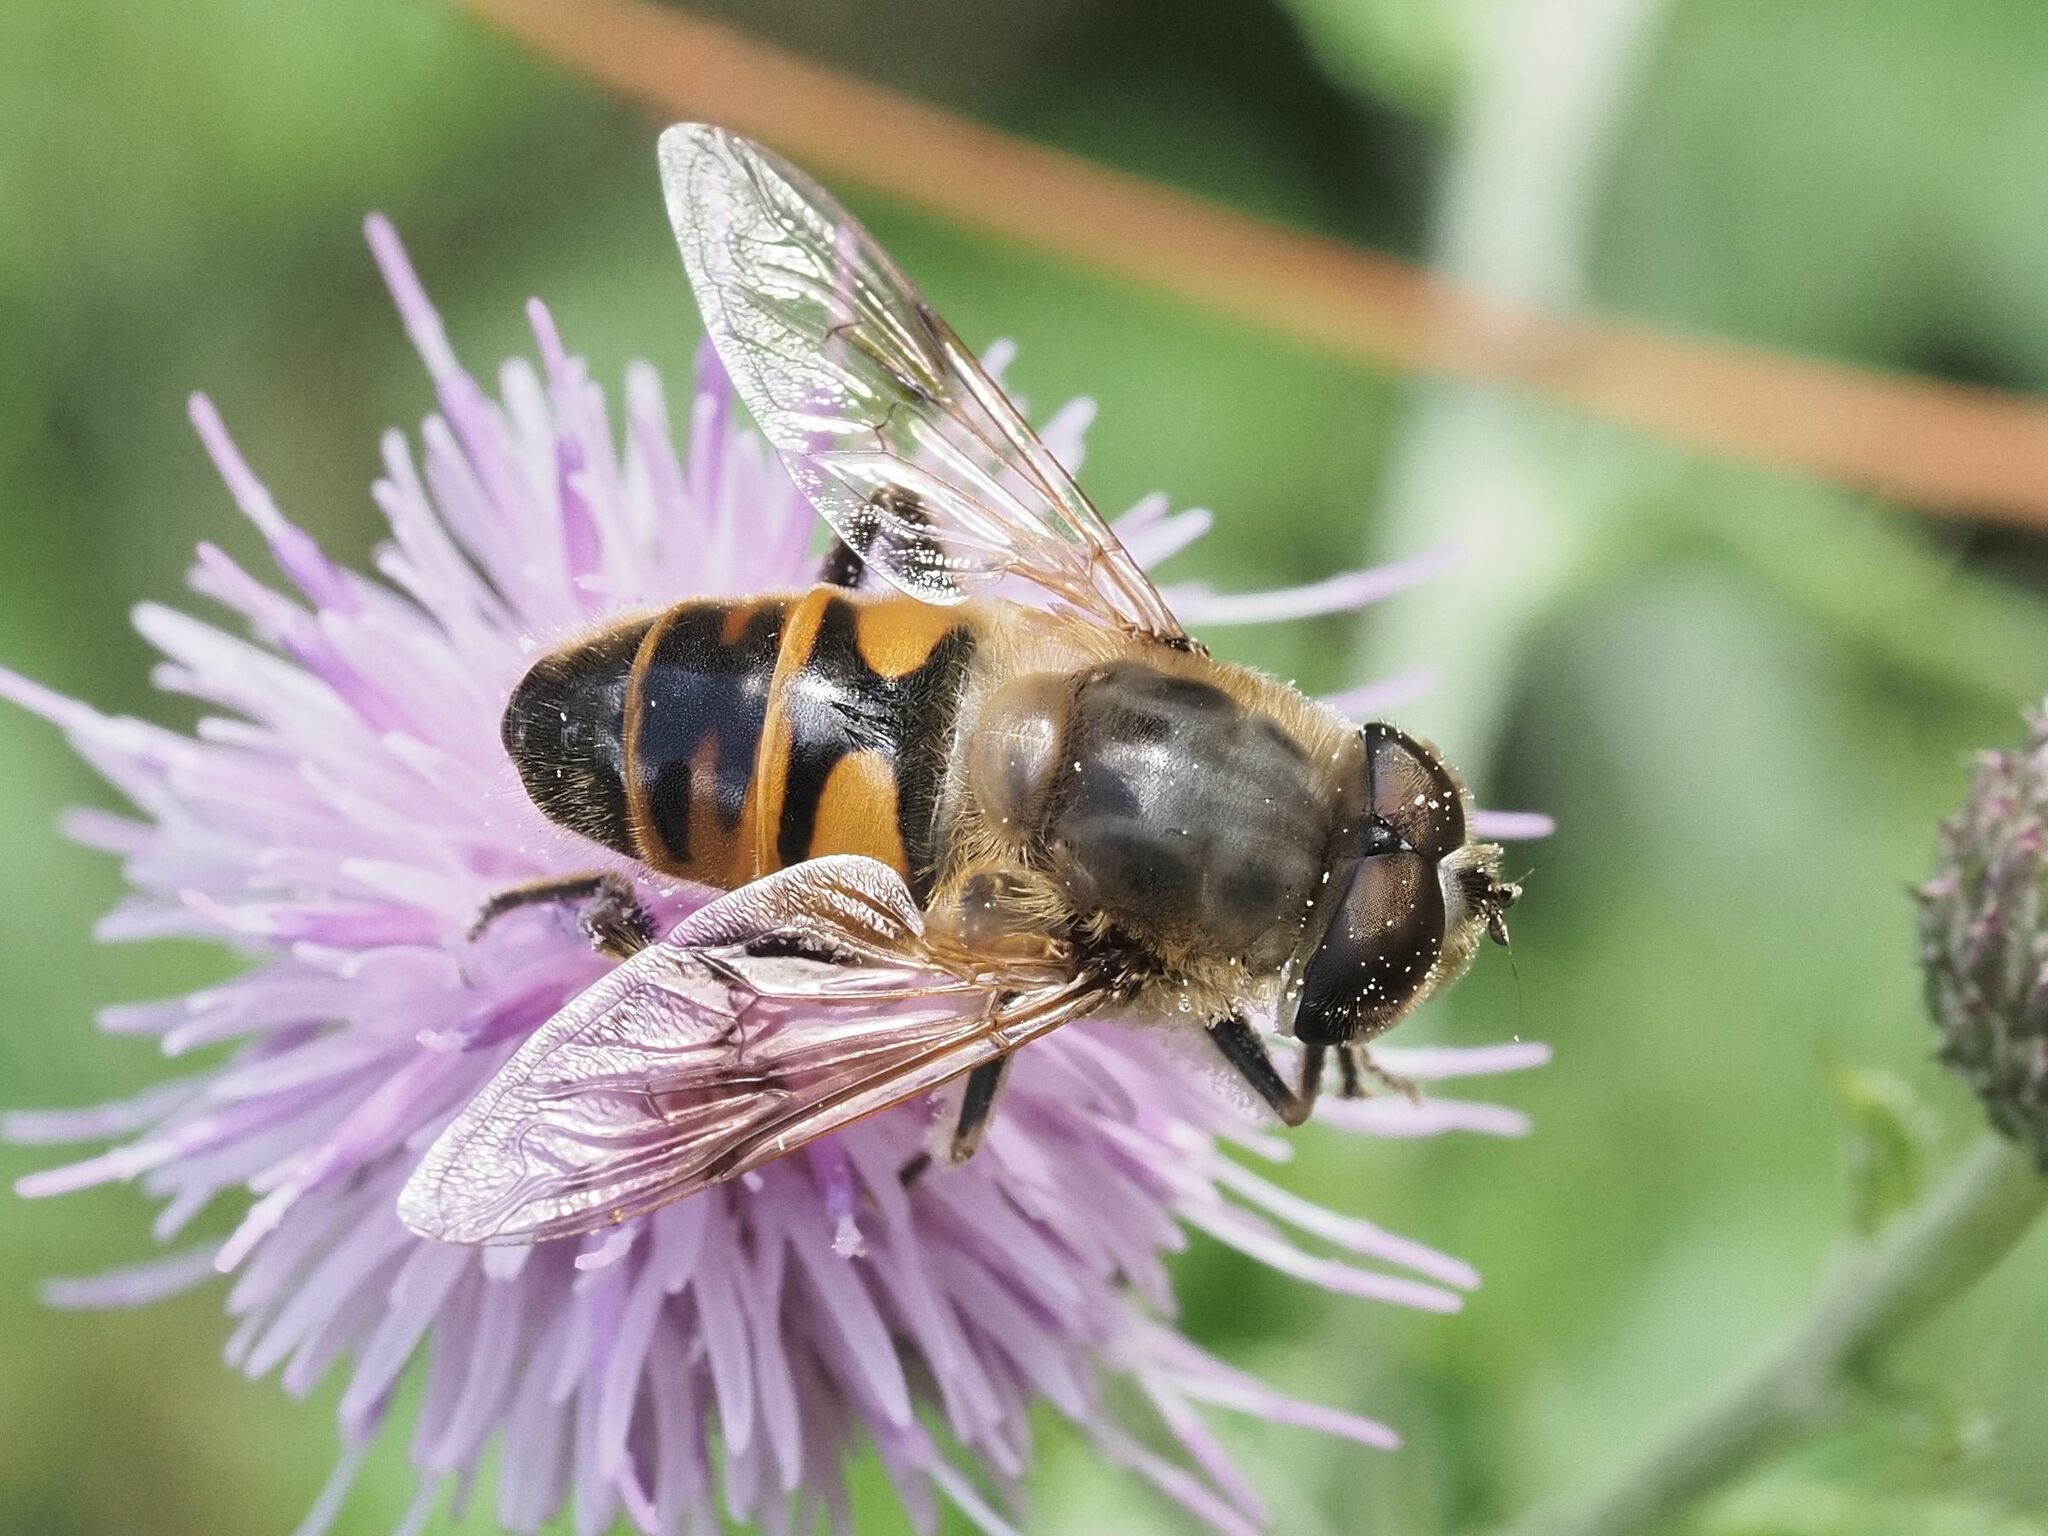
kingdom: Animalia
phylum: Arthropoda
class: Insecta
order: Diptera
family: Syrphidae
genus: Eristalis
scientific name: Eristalis tenax
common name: Drone fly
